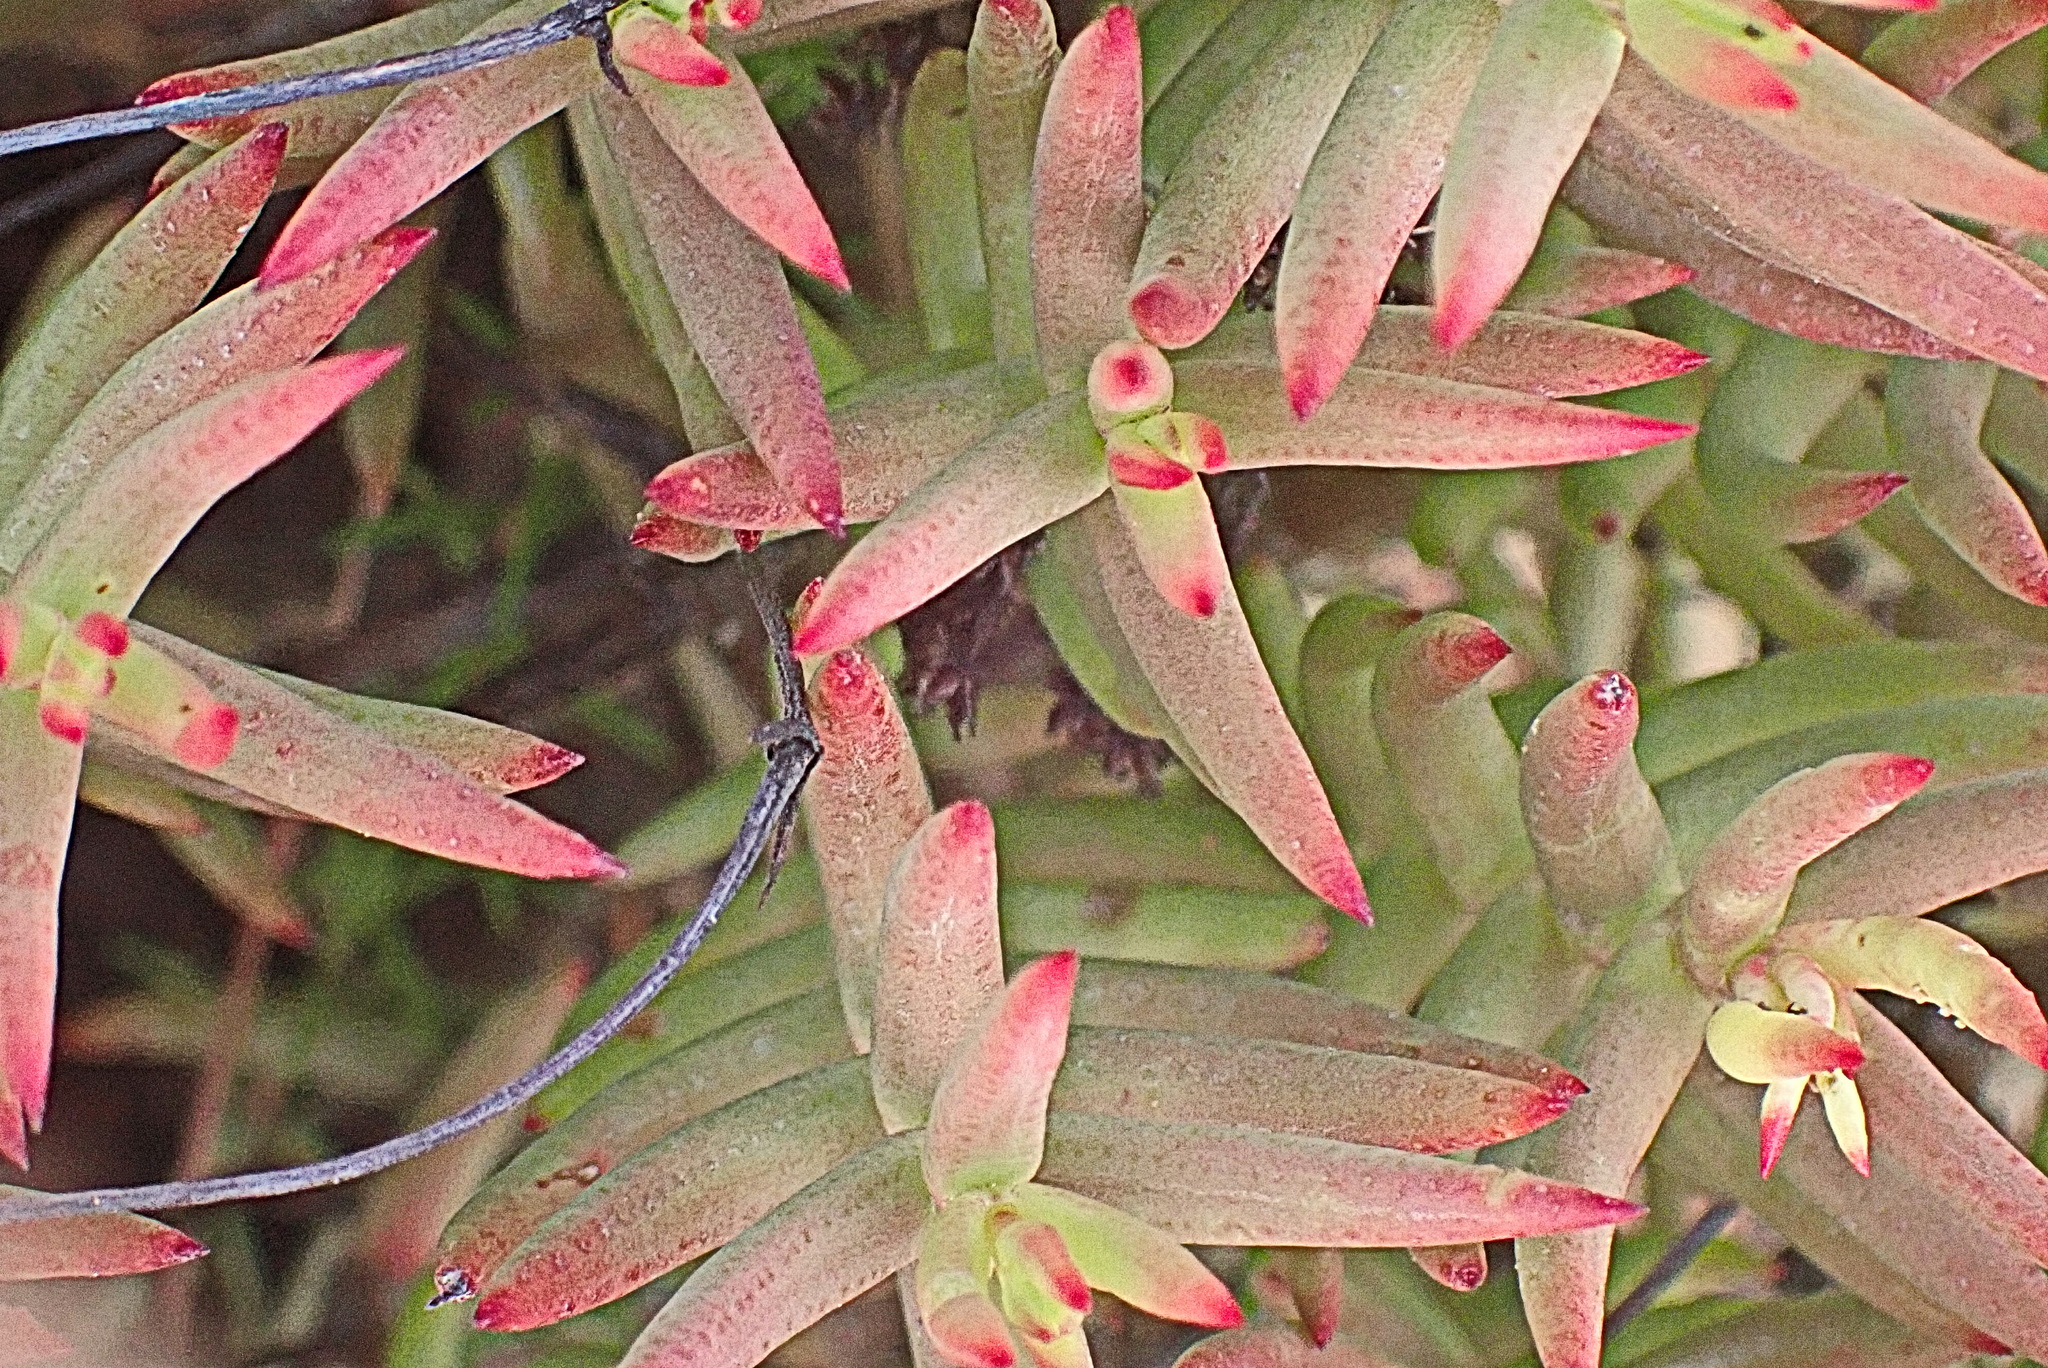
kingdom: Plantae
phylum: Tracheophyta
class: Magnoliopsida
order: Saxifragales
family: Crassulaceae
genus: Crassula
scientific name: Crassula tetragona
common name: Pygmyweed
